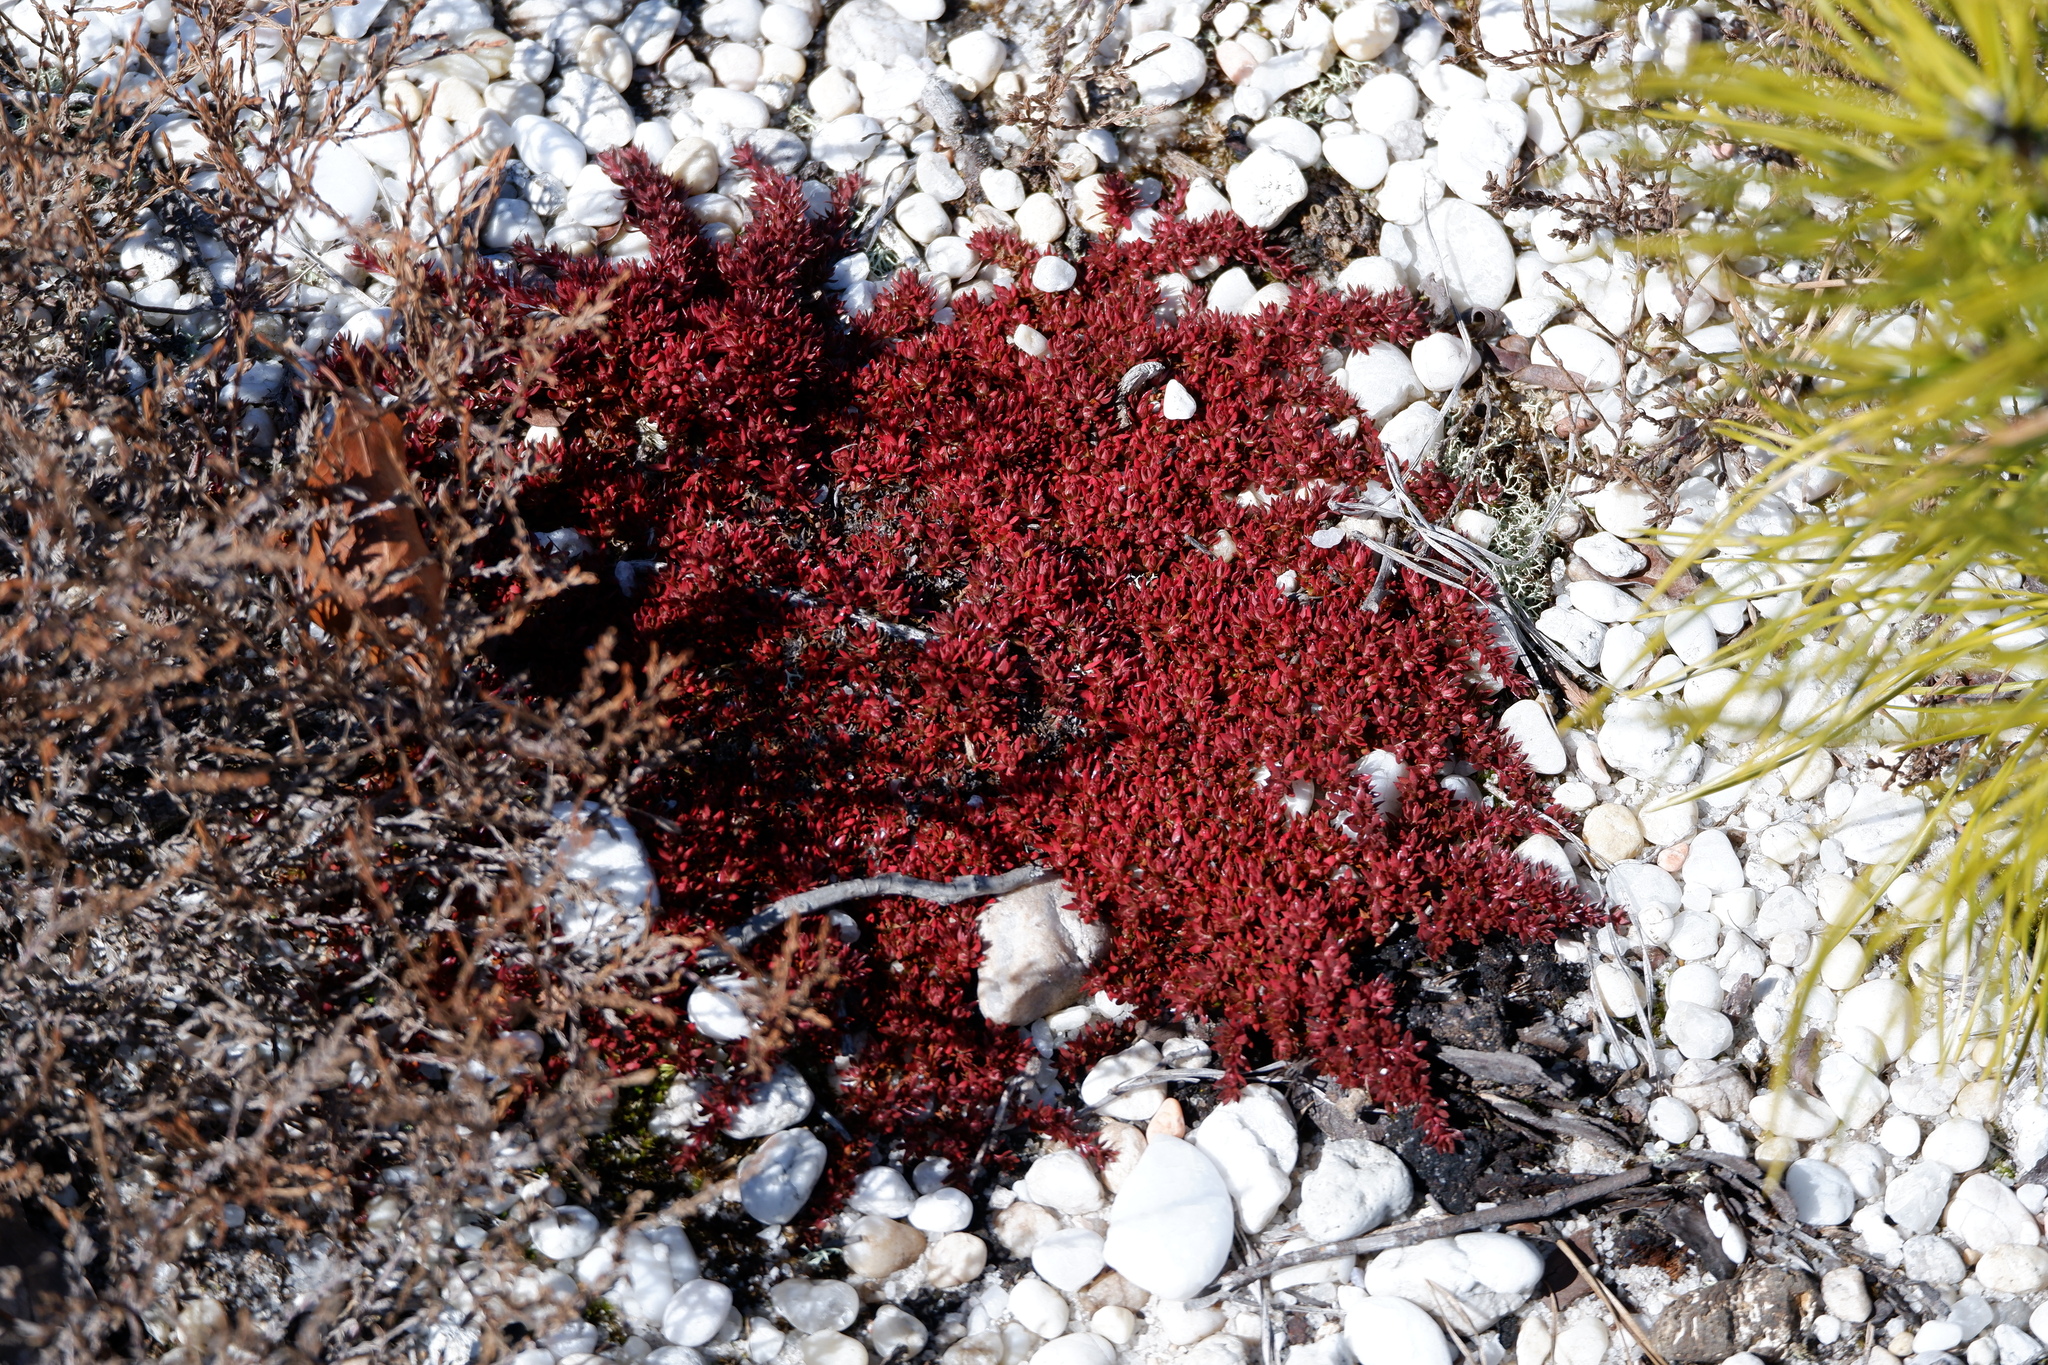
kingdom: Plantae
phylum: Tracheophyta
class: Magnoliopsida
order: Ericales
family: Diapensiaceae
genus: Pyxidanthera
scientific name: Pyxidanthera barbulata
